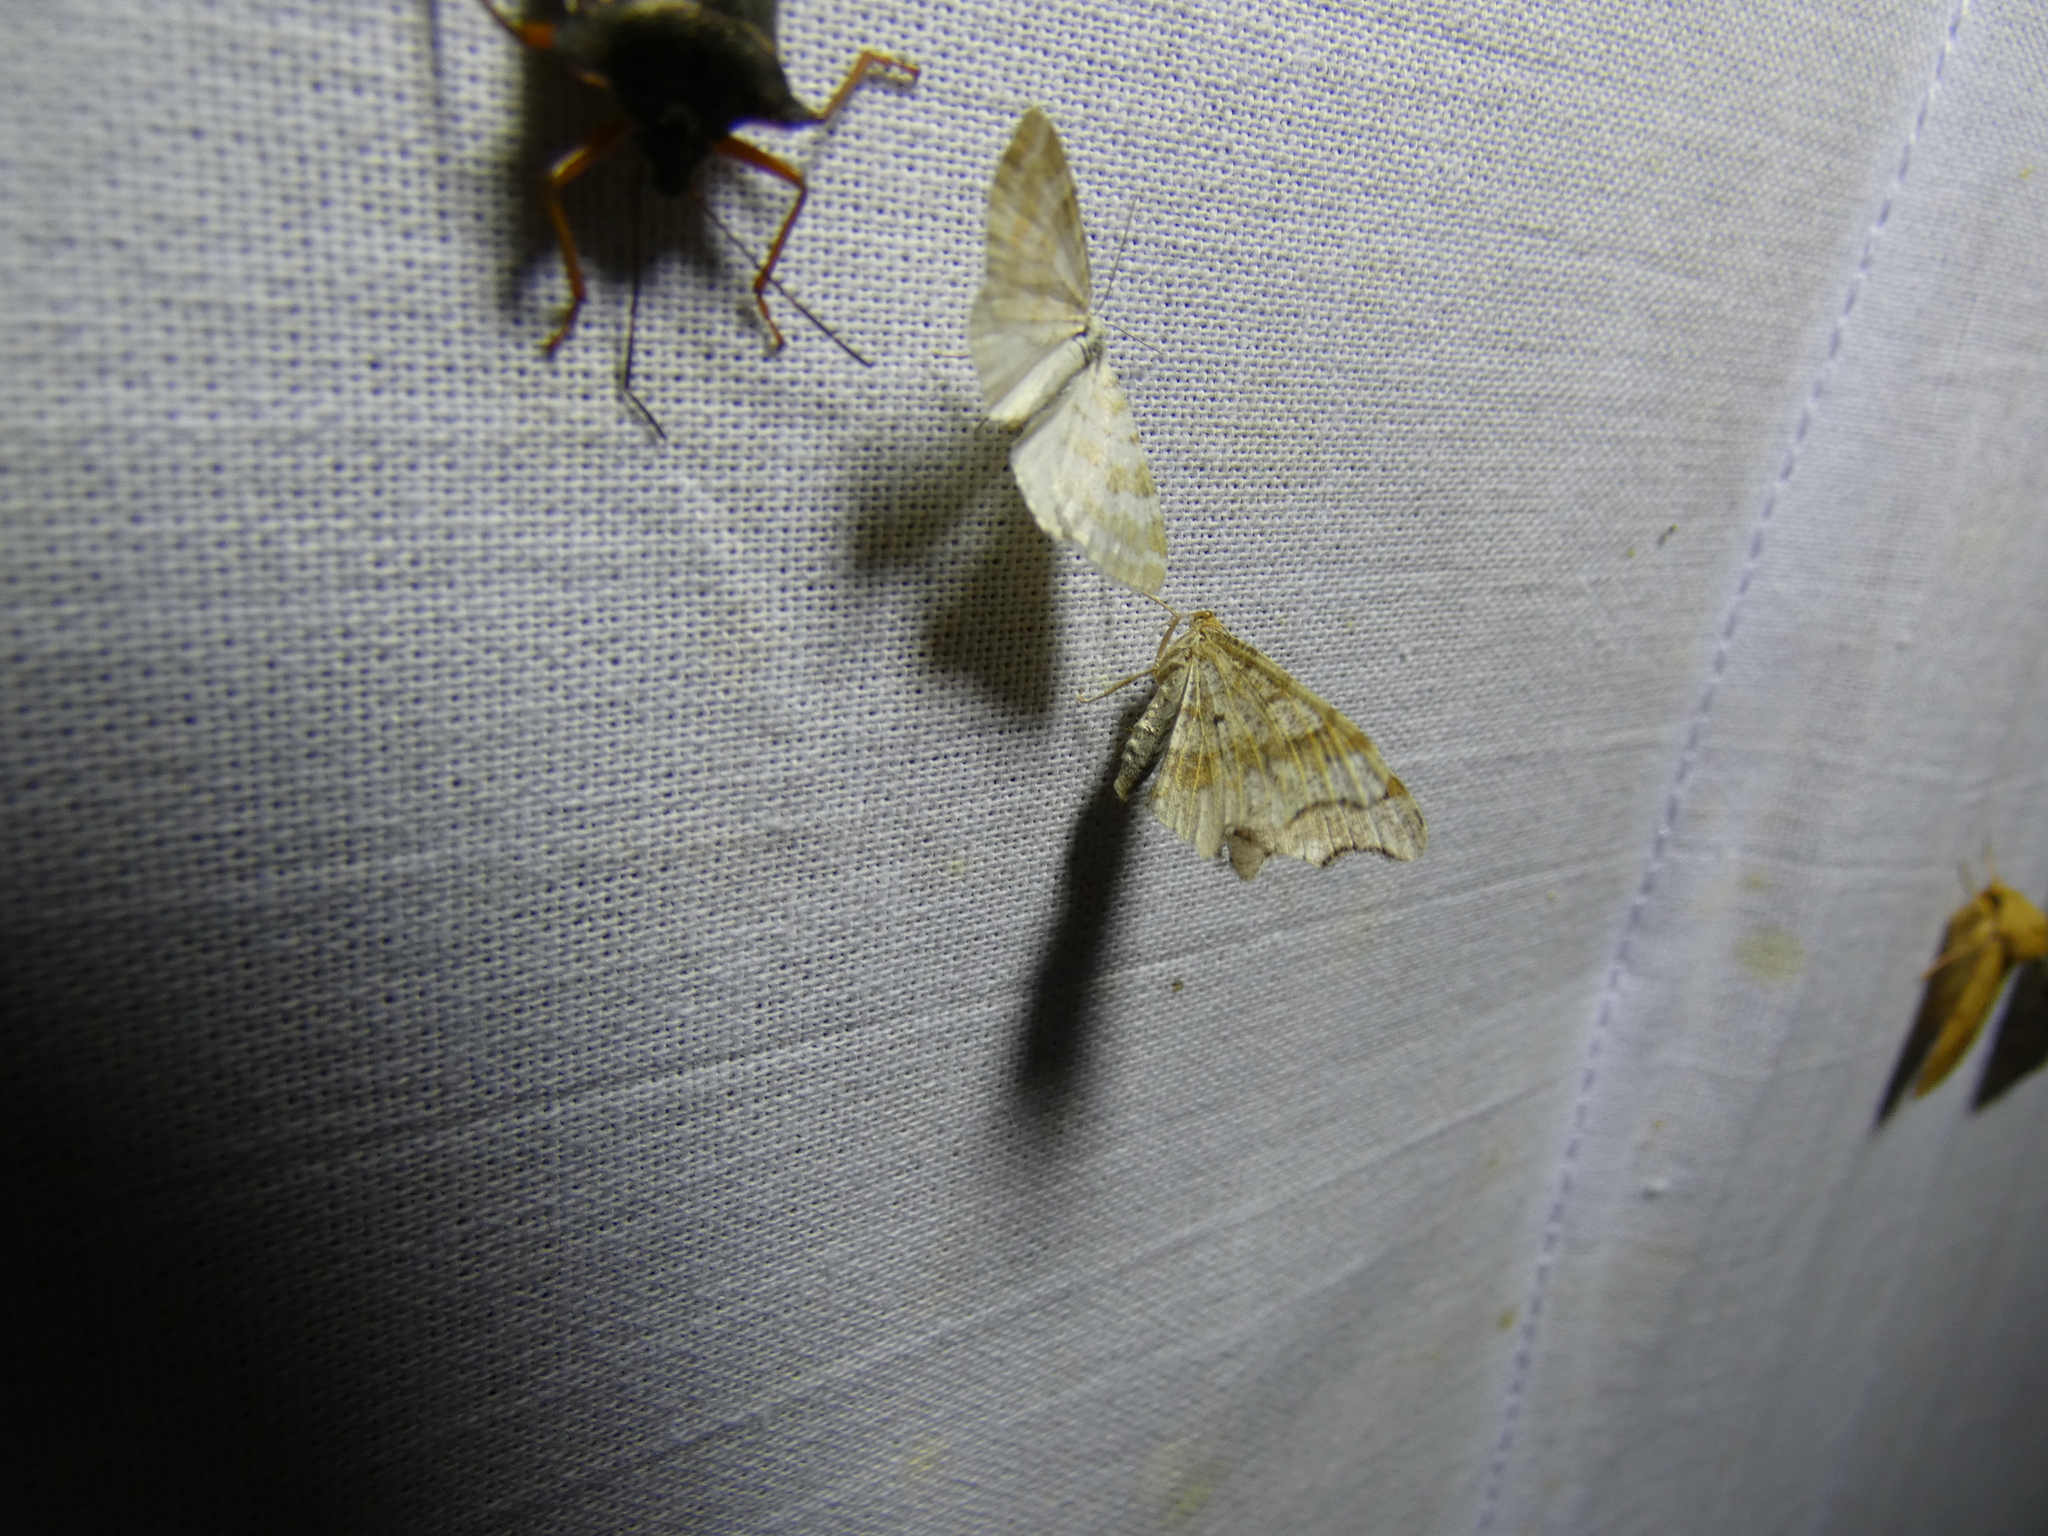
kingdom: Animalia
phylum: Arthropoda
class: Insecta
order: Lepidoptera
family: Geometridae
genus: Perizoma
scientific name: Perizoma albulata
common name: Grass rivulet
